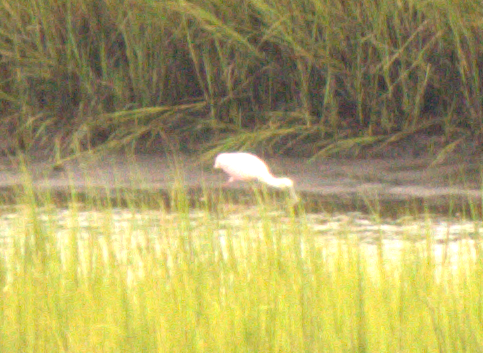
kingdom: Animalia
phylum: Chordata
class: Aves
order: Pelecaniformes
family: Threskiornithidae
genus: Platalea
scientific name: Platalea ajaja
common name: Roseate spoonbill
